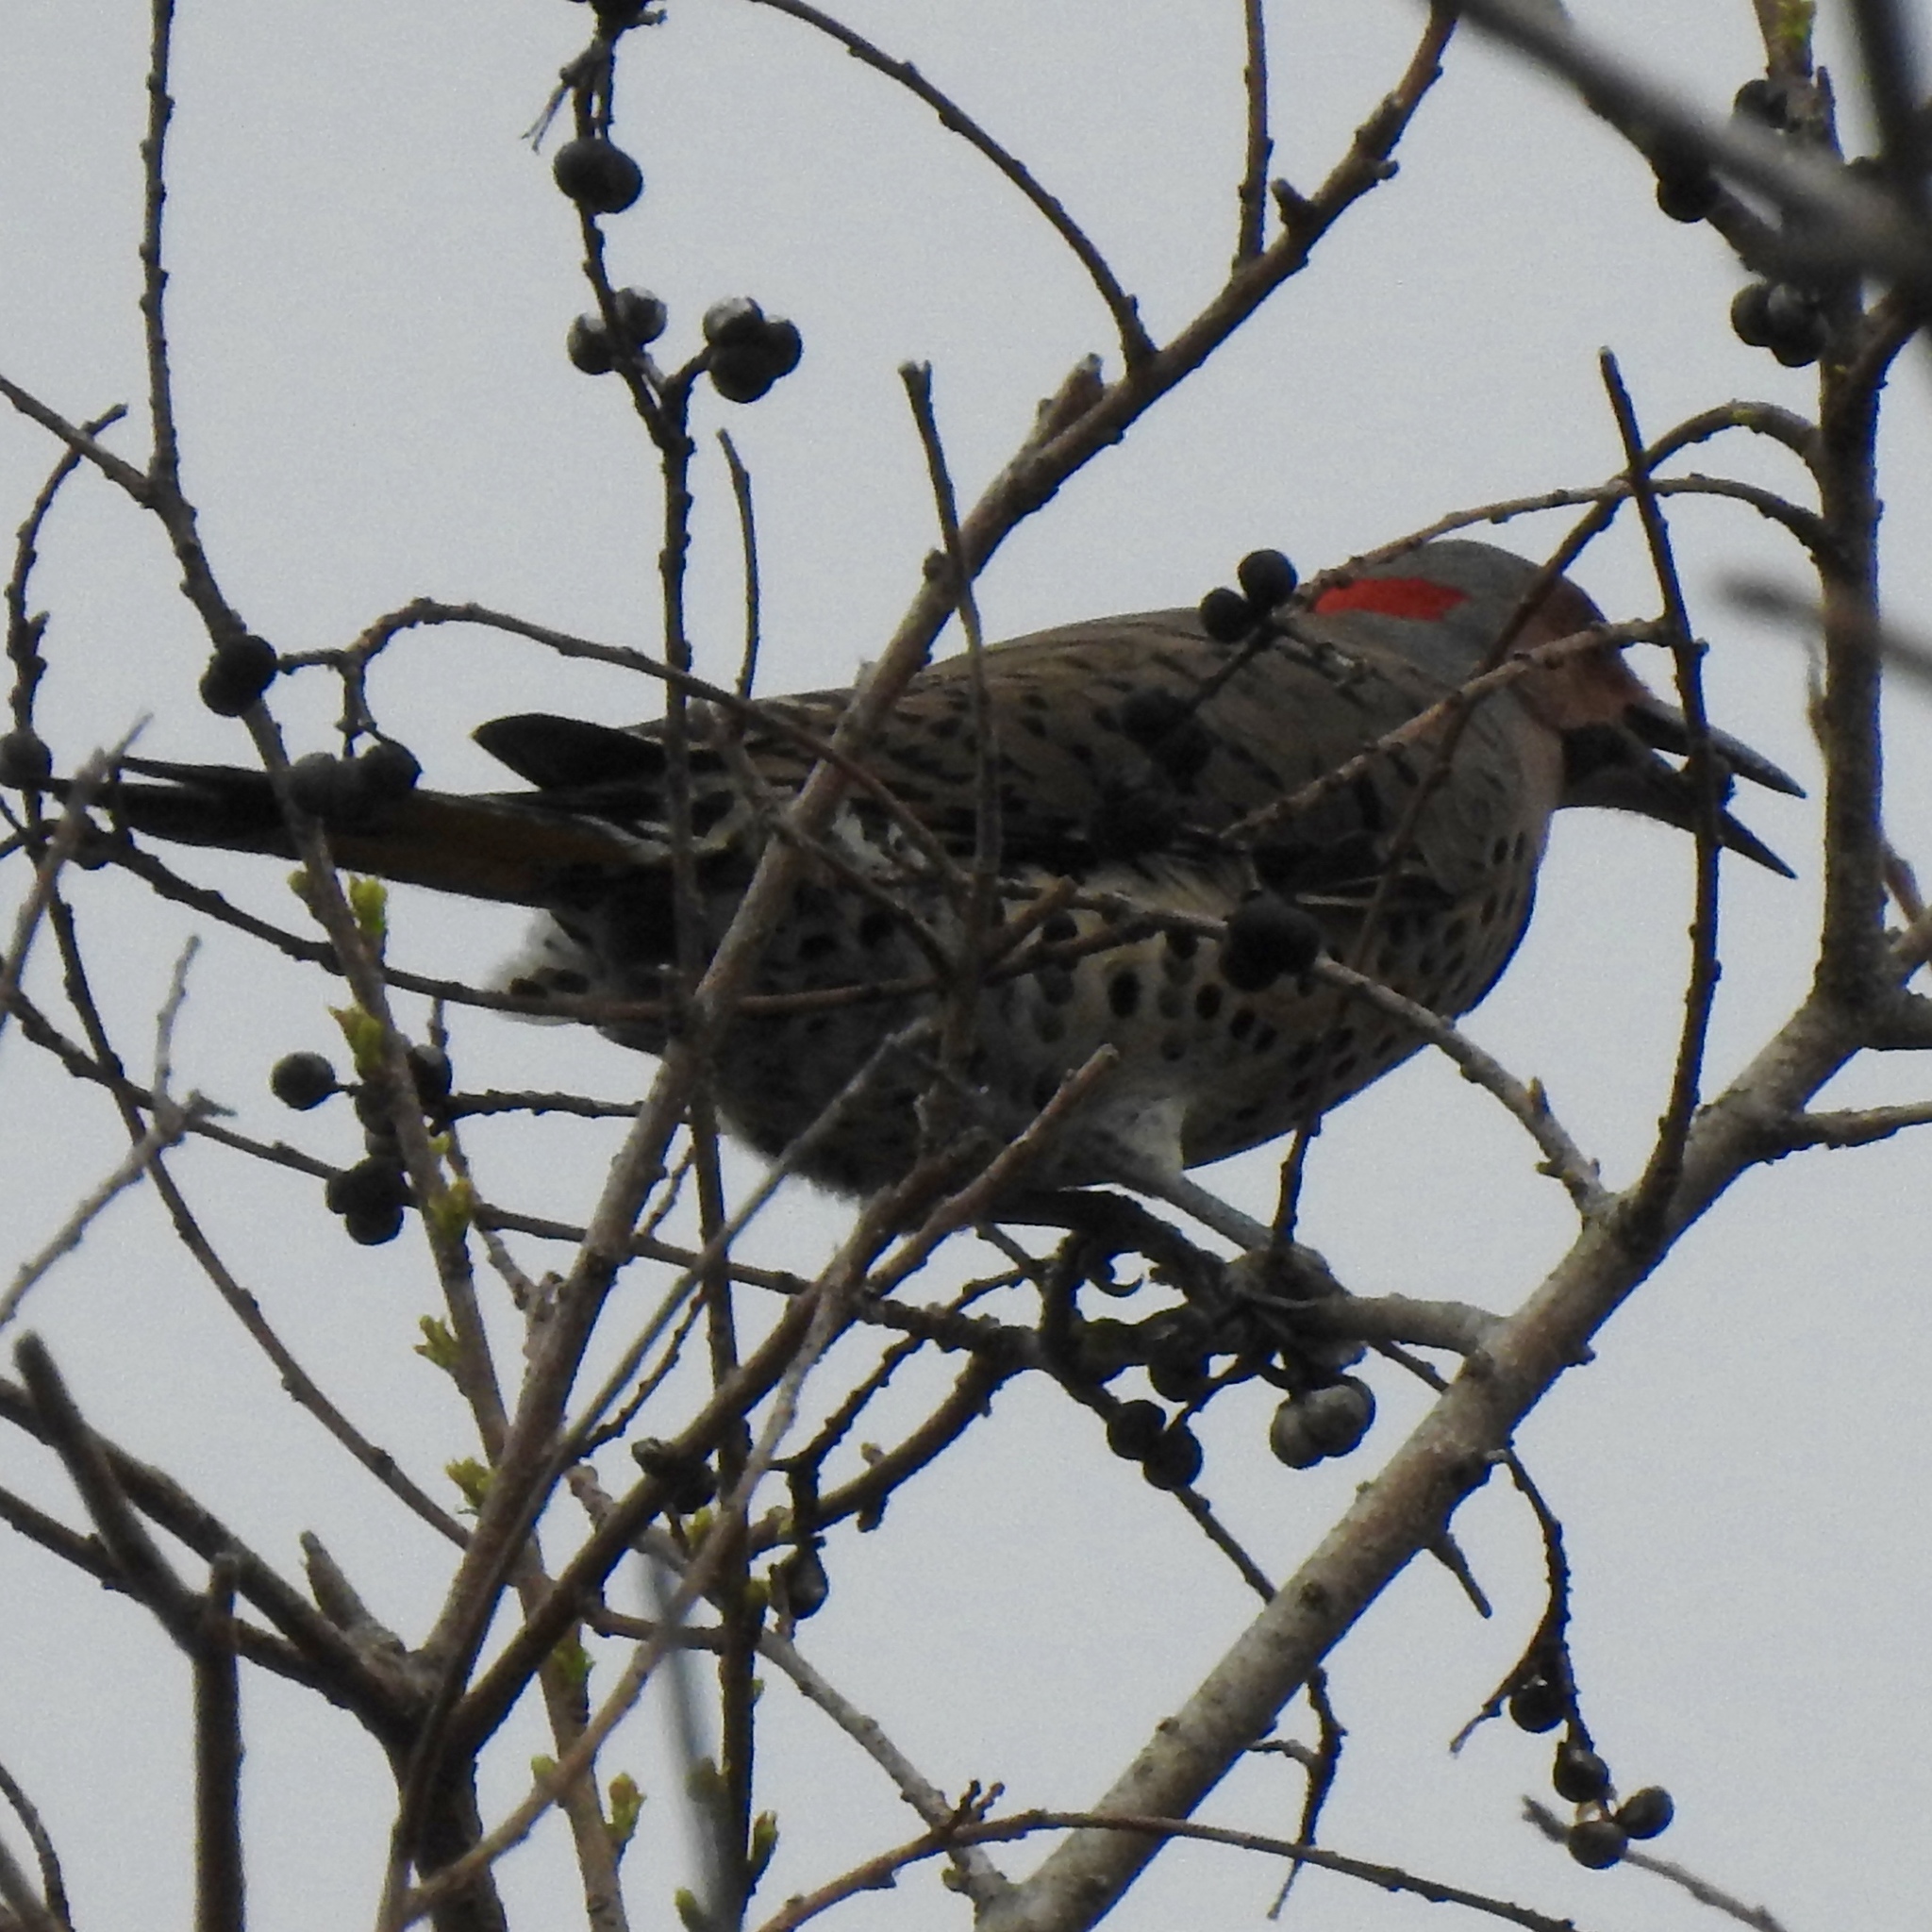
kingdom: Animalia
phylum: Chordata
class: Aves
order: Piciformes
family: Picidae
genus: Colaptes
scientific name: Colaptes auratus
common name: Northern flicker
